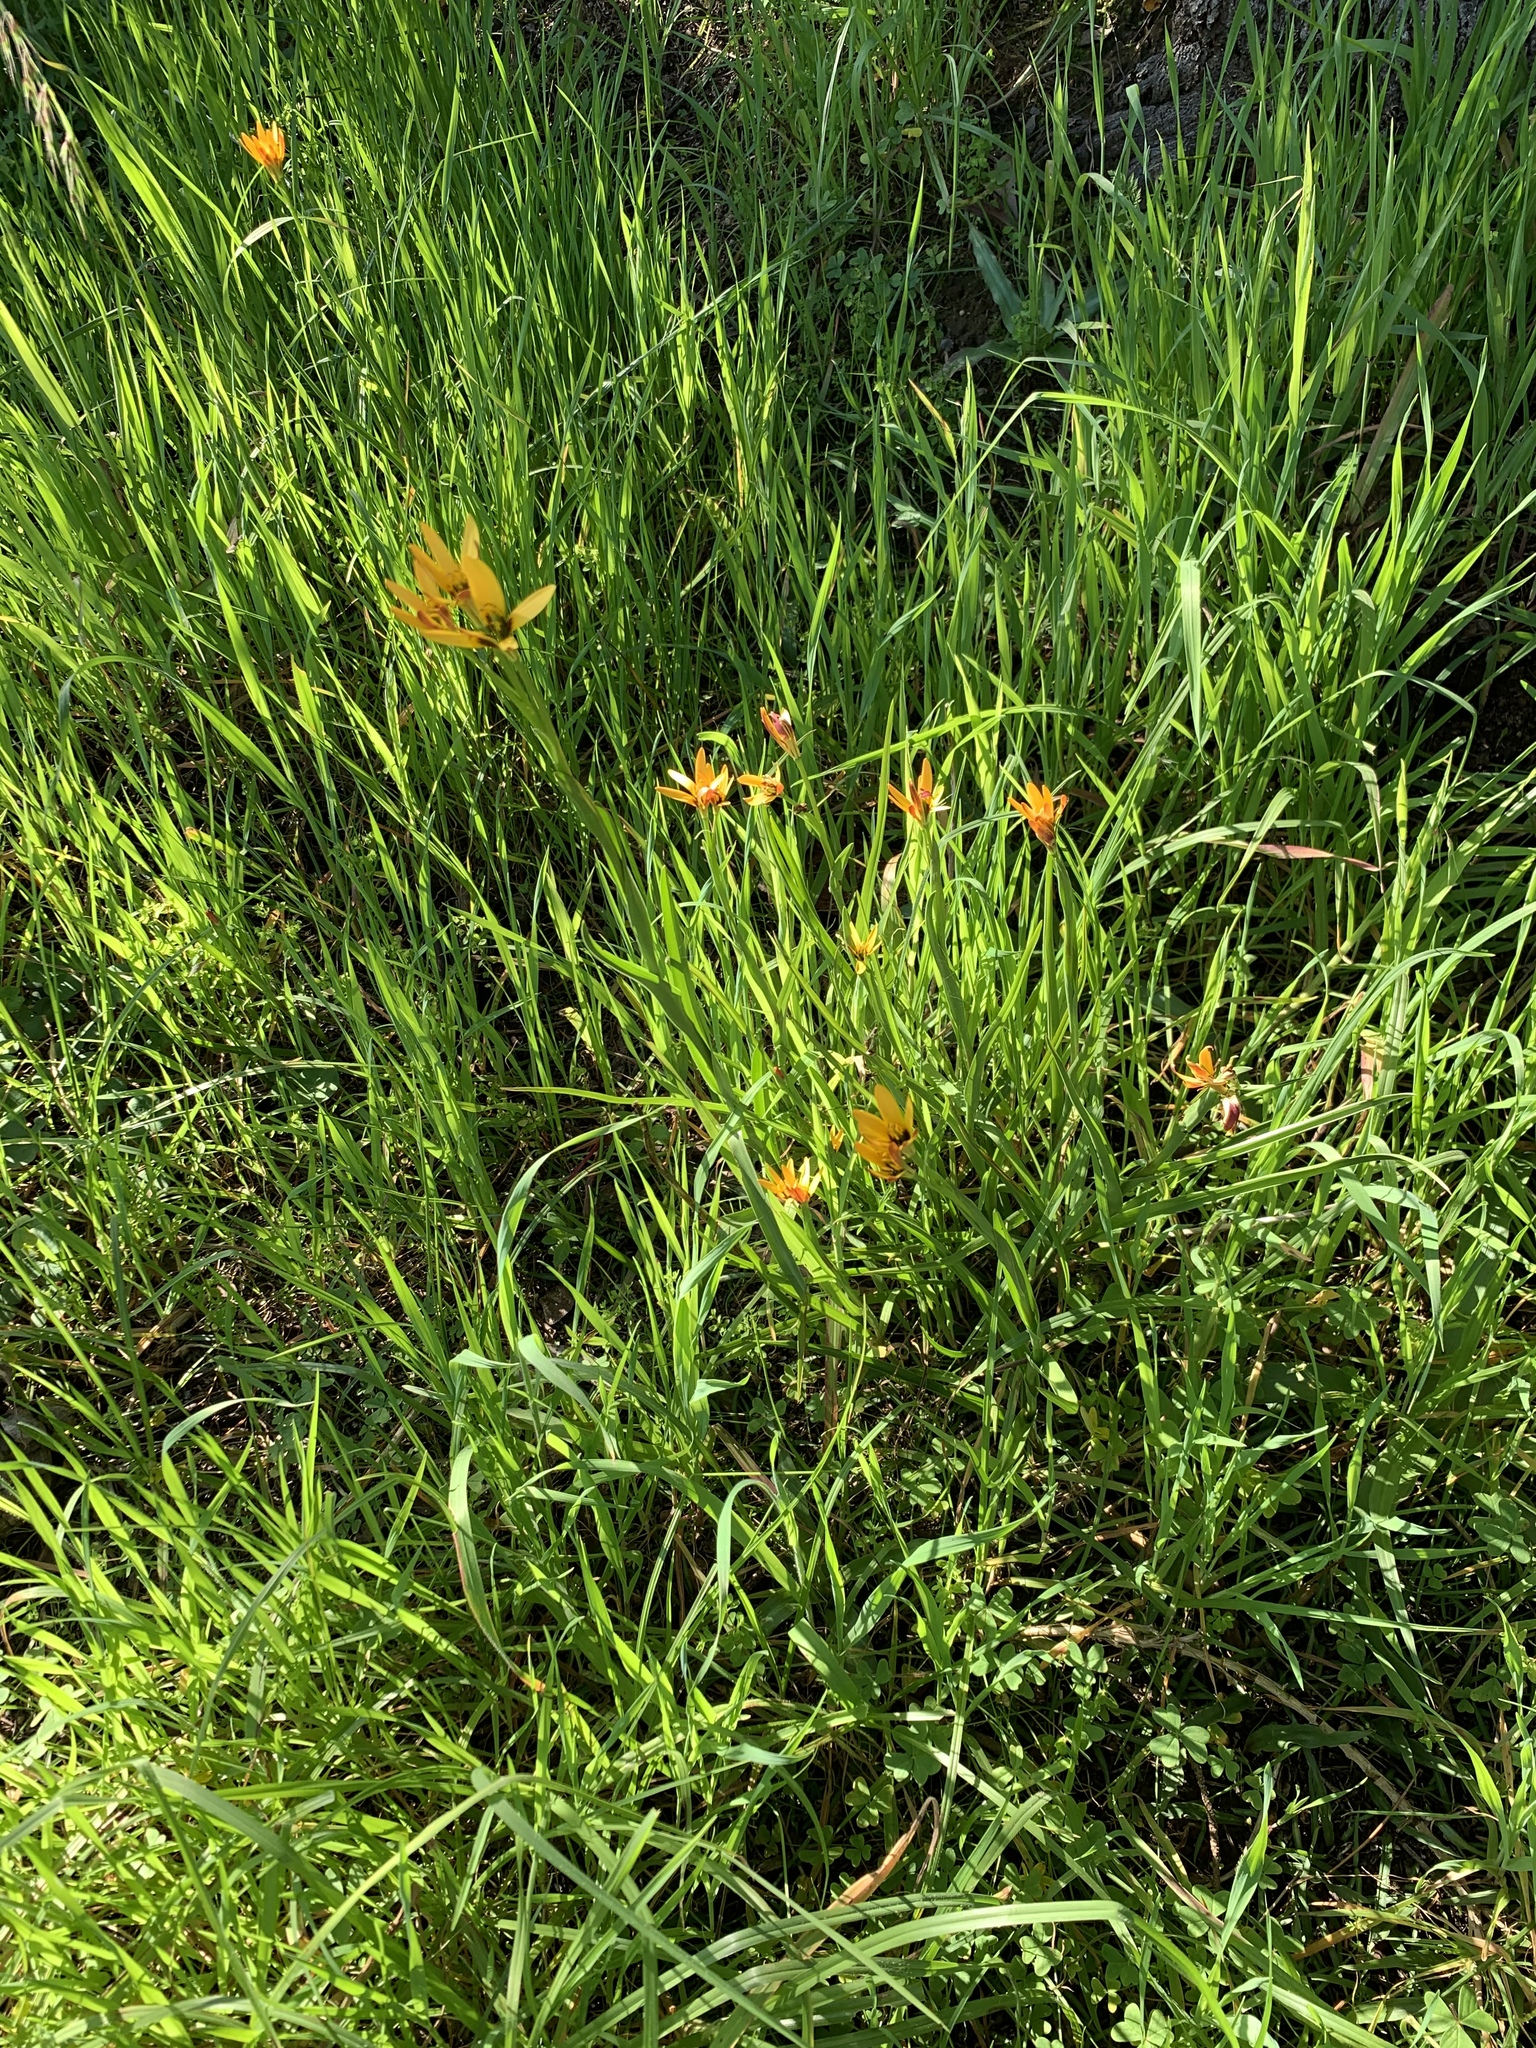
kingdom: Plantae
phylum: Tracheophyta
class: Liliopsida
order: Liliales
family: Colchicaceae
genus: Baeometra
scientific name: Baeometra uniflora
